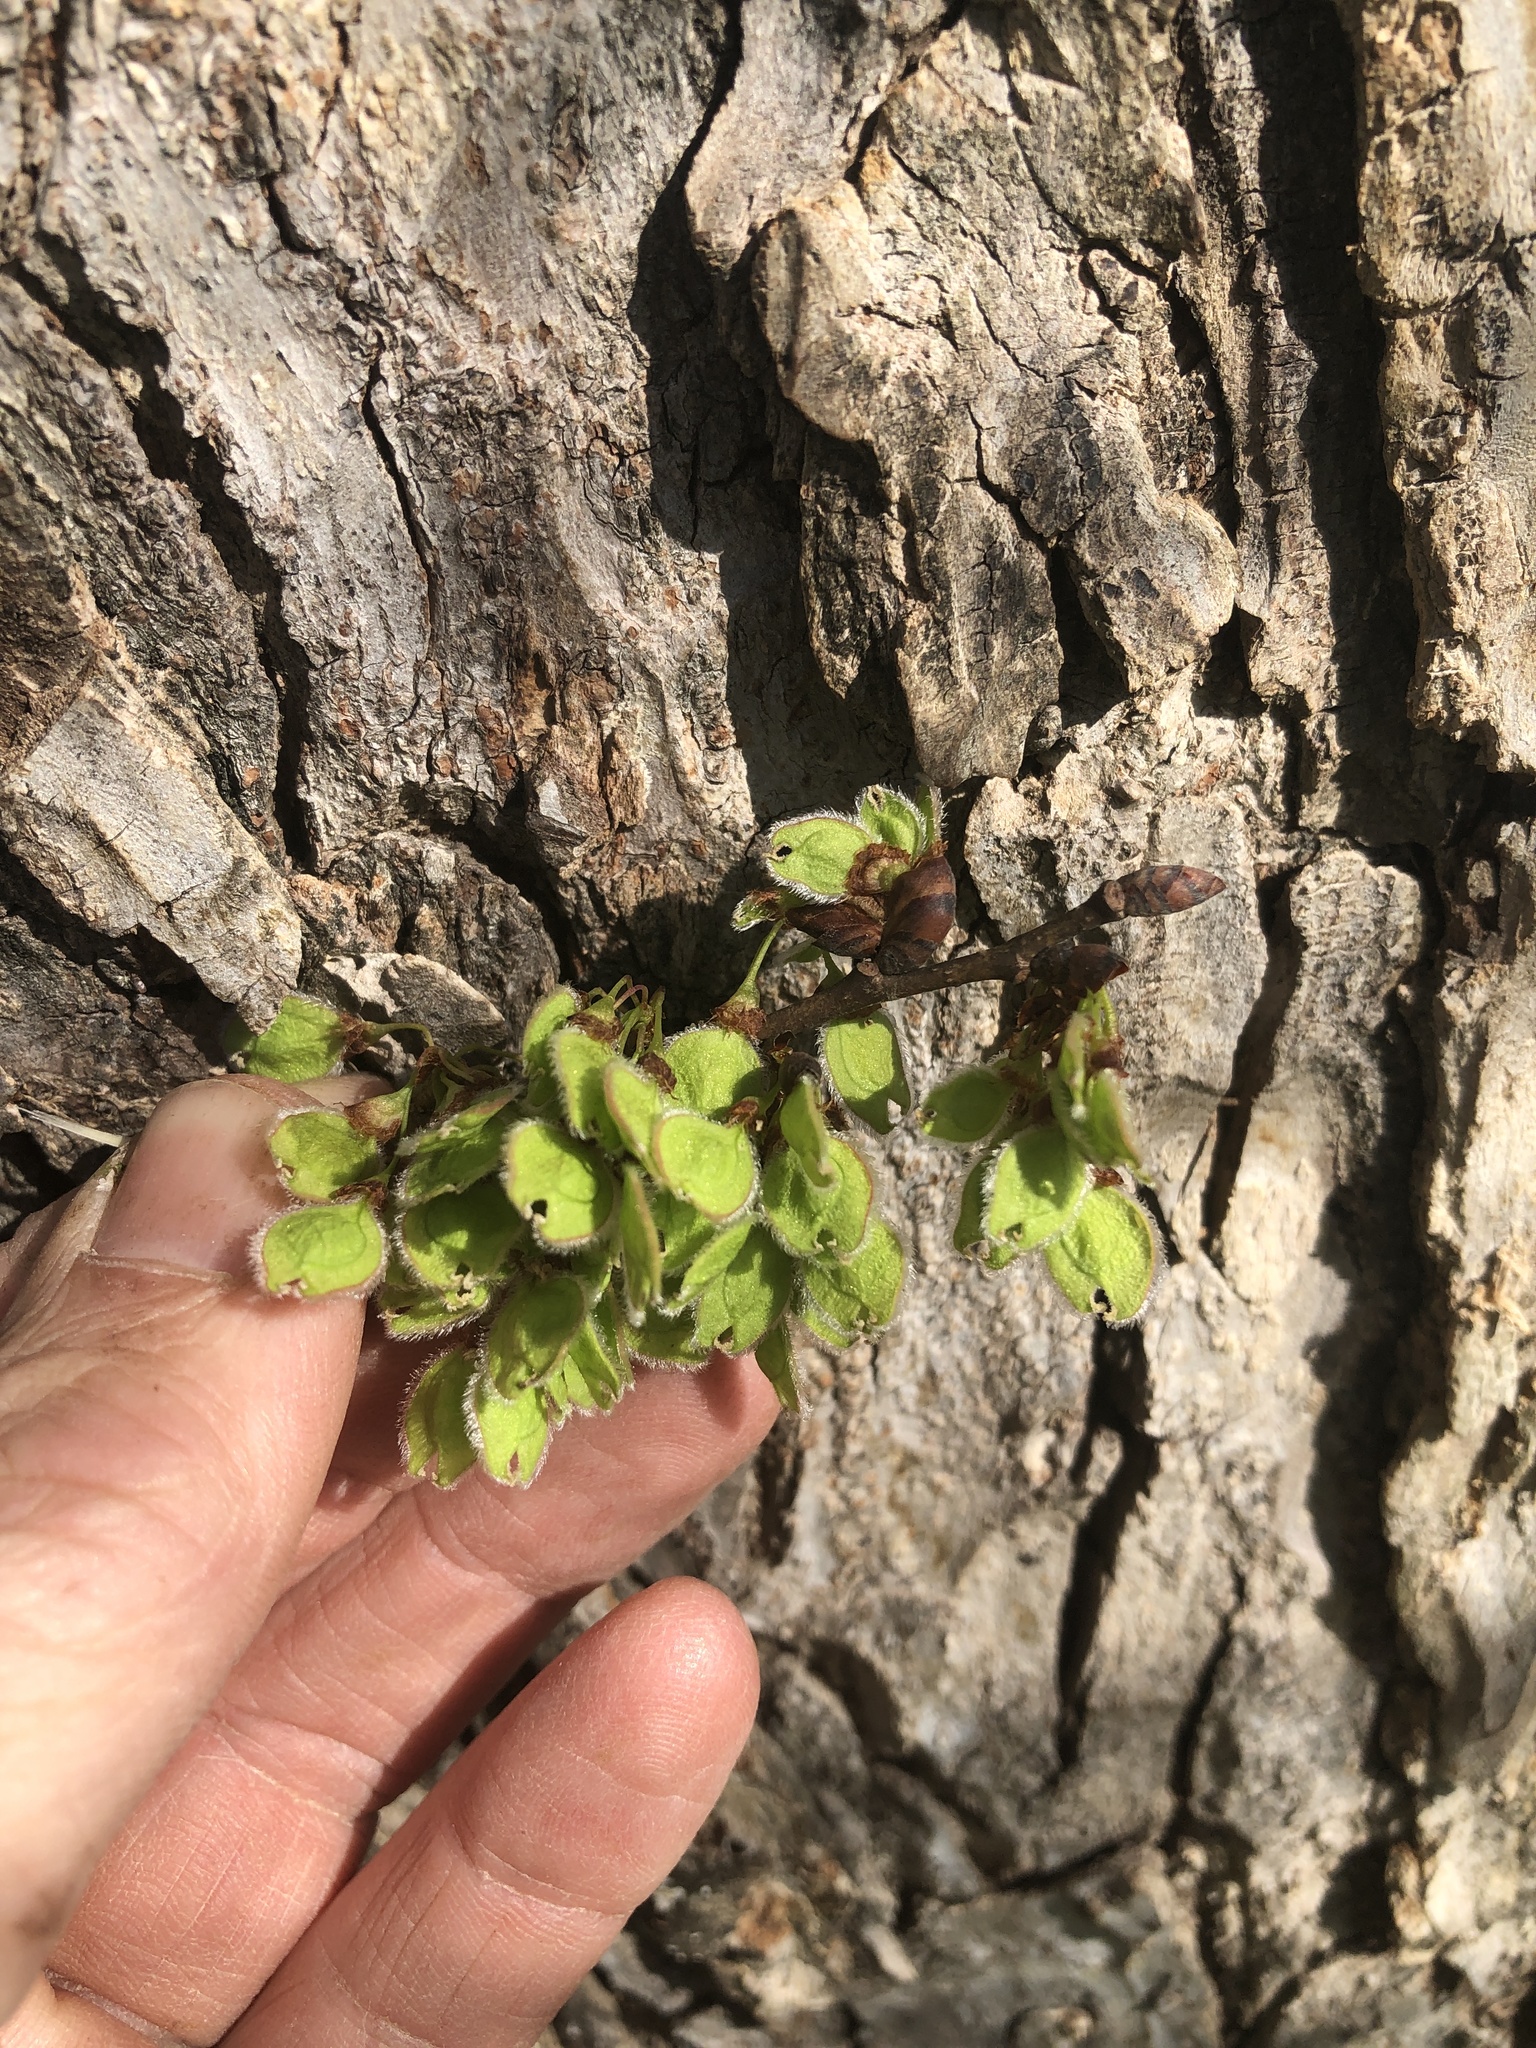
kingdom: Plantae
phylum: Tracheophyta
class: Magnoliopsida
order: Rosales
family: Ulmaceae
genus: Ulmus
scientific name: Ulmus americana
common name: American elm
